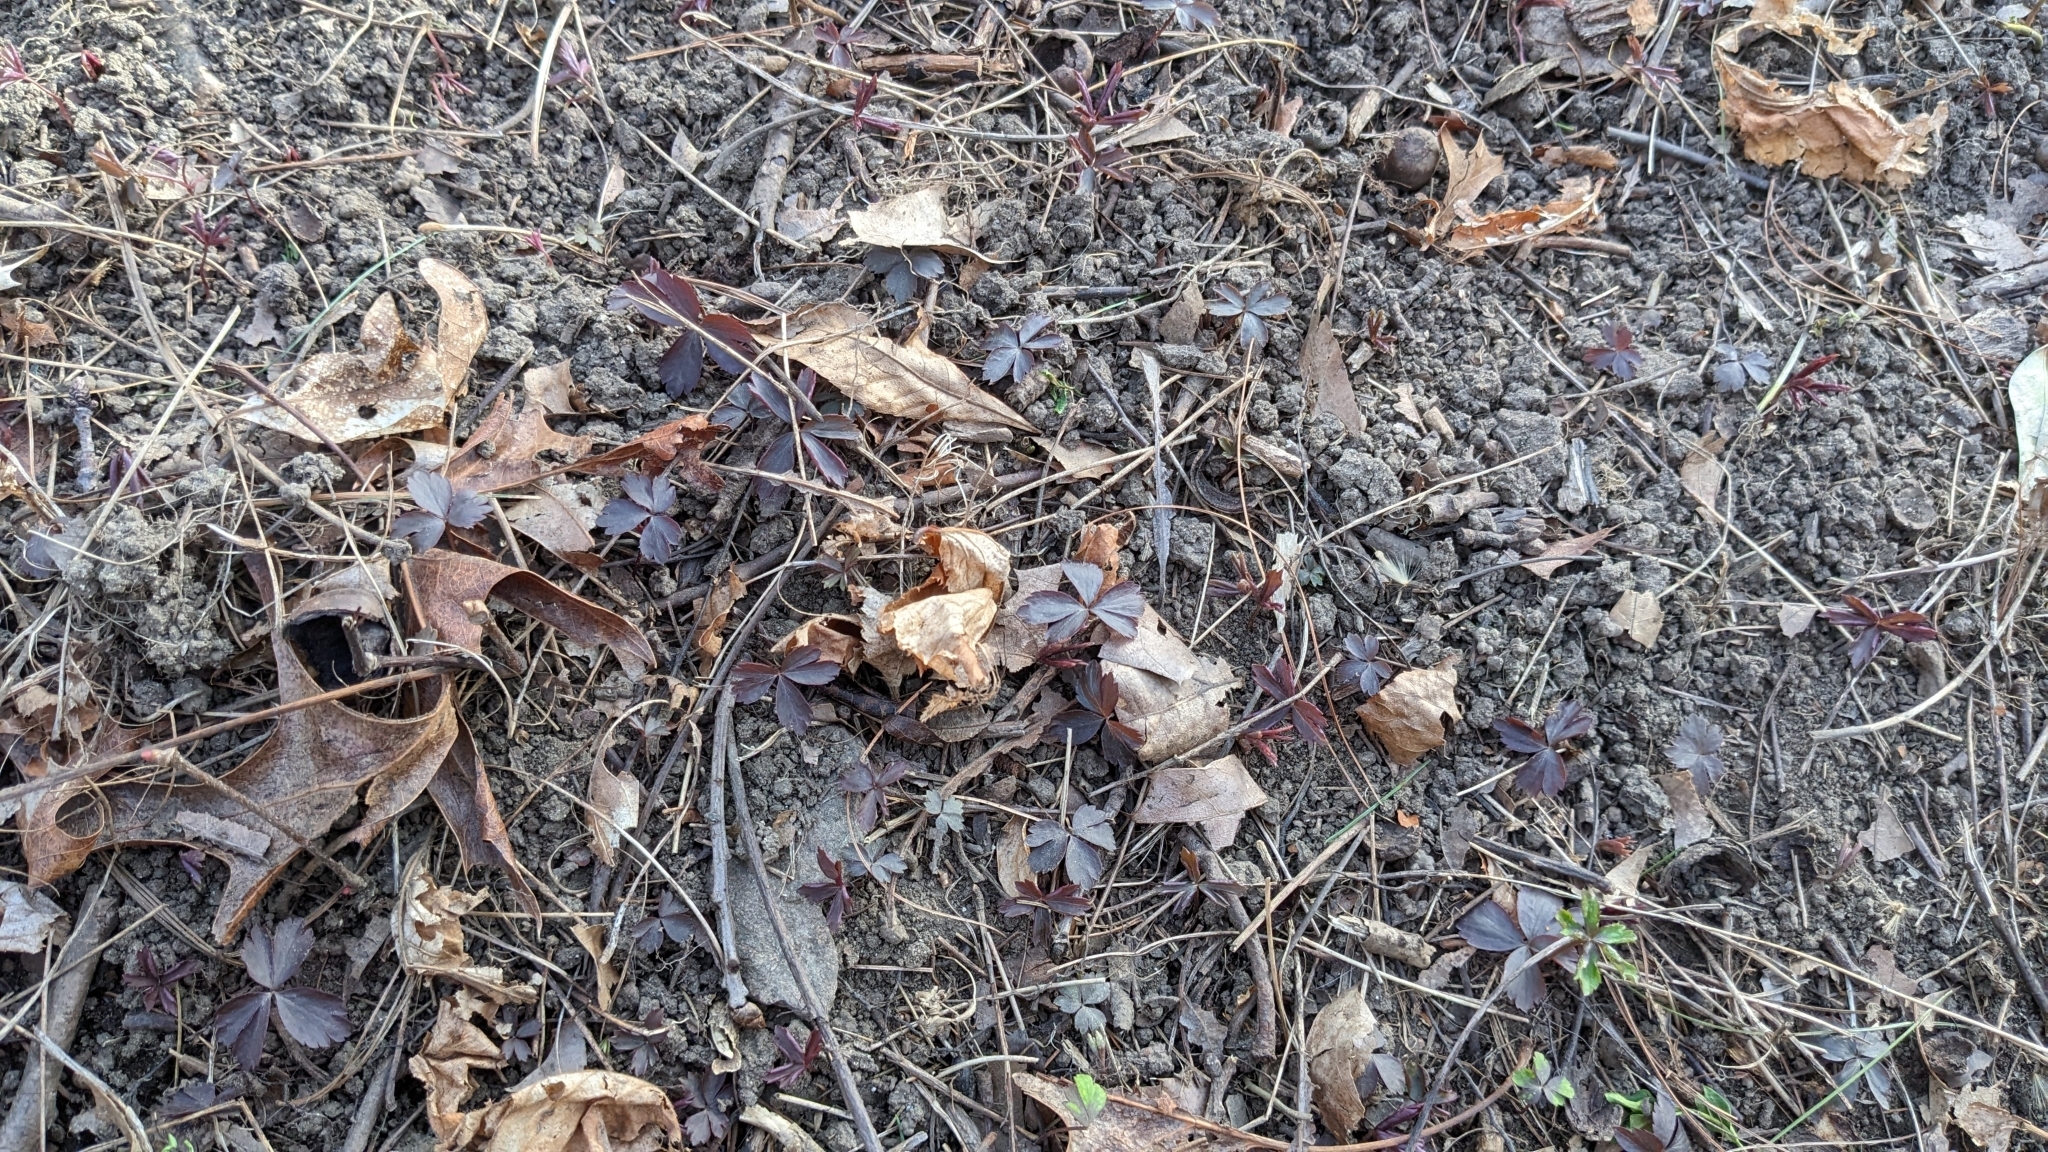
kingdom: Plantae
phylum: Tracheophyta
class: Magnoliopsida
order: Ranunculales
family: Ranunculaceae
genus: Anemone
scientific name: Anemone quinquefolia
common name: Wood anemone
